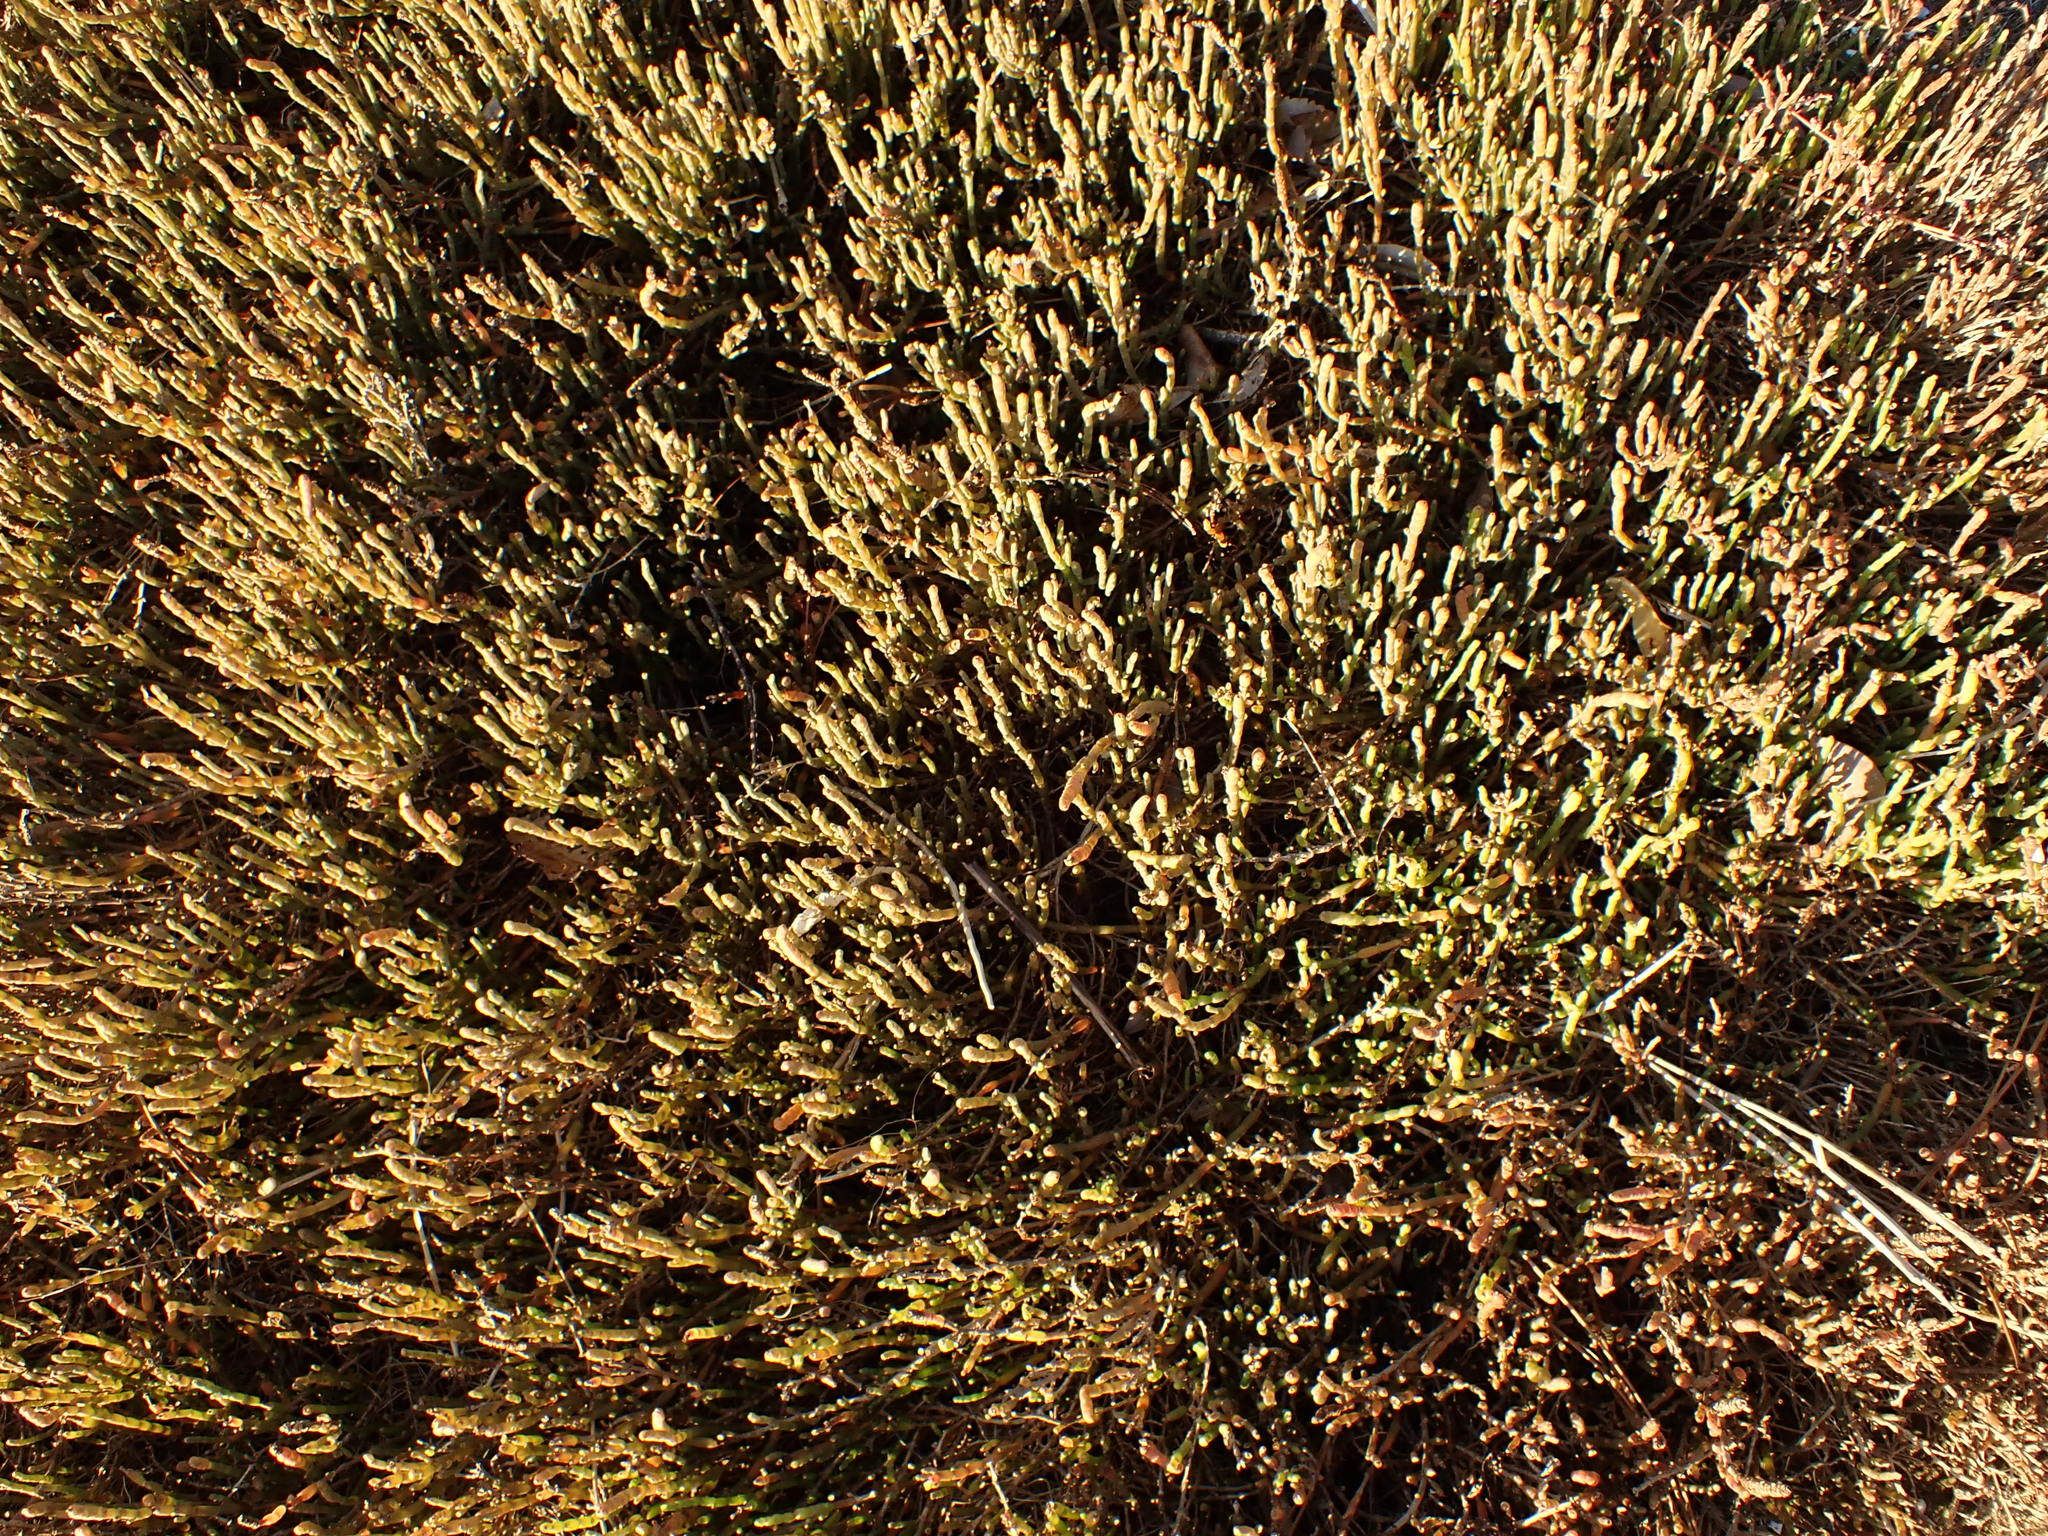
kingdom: Plantae
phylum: Tracheophyta
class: Magnoliopsida
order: Caryophyllales
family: Amaranthaceae
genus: Salicornia
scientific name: Salicornia quinqueflora
